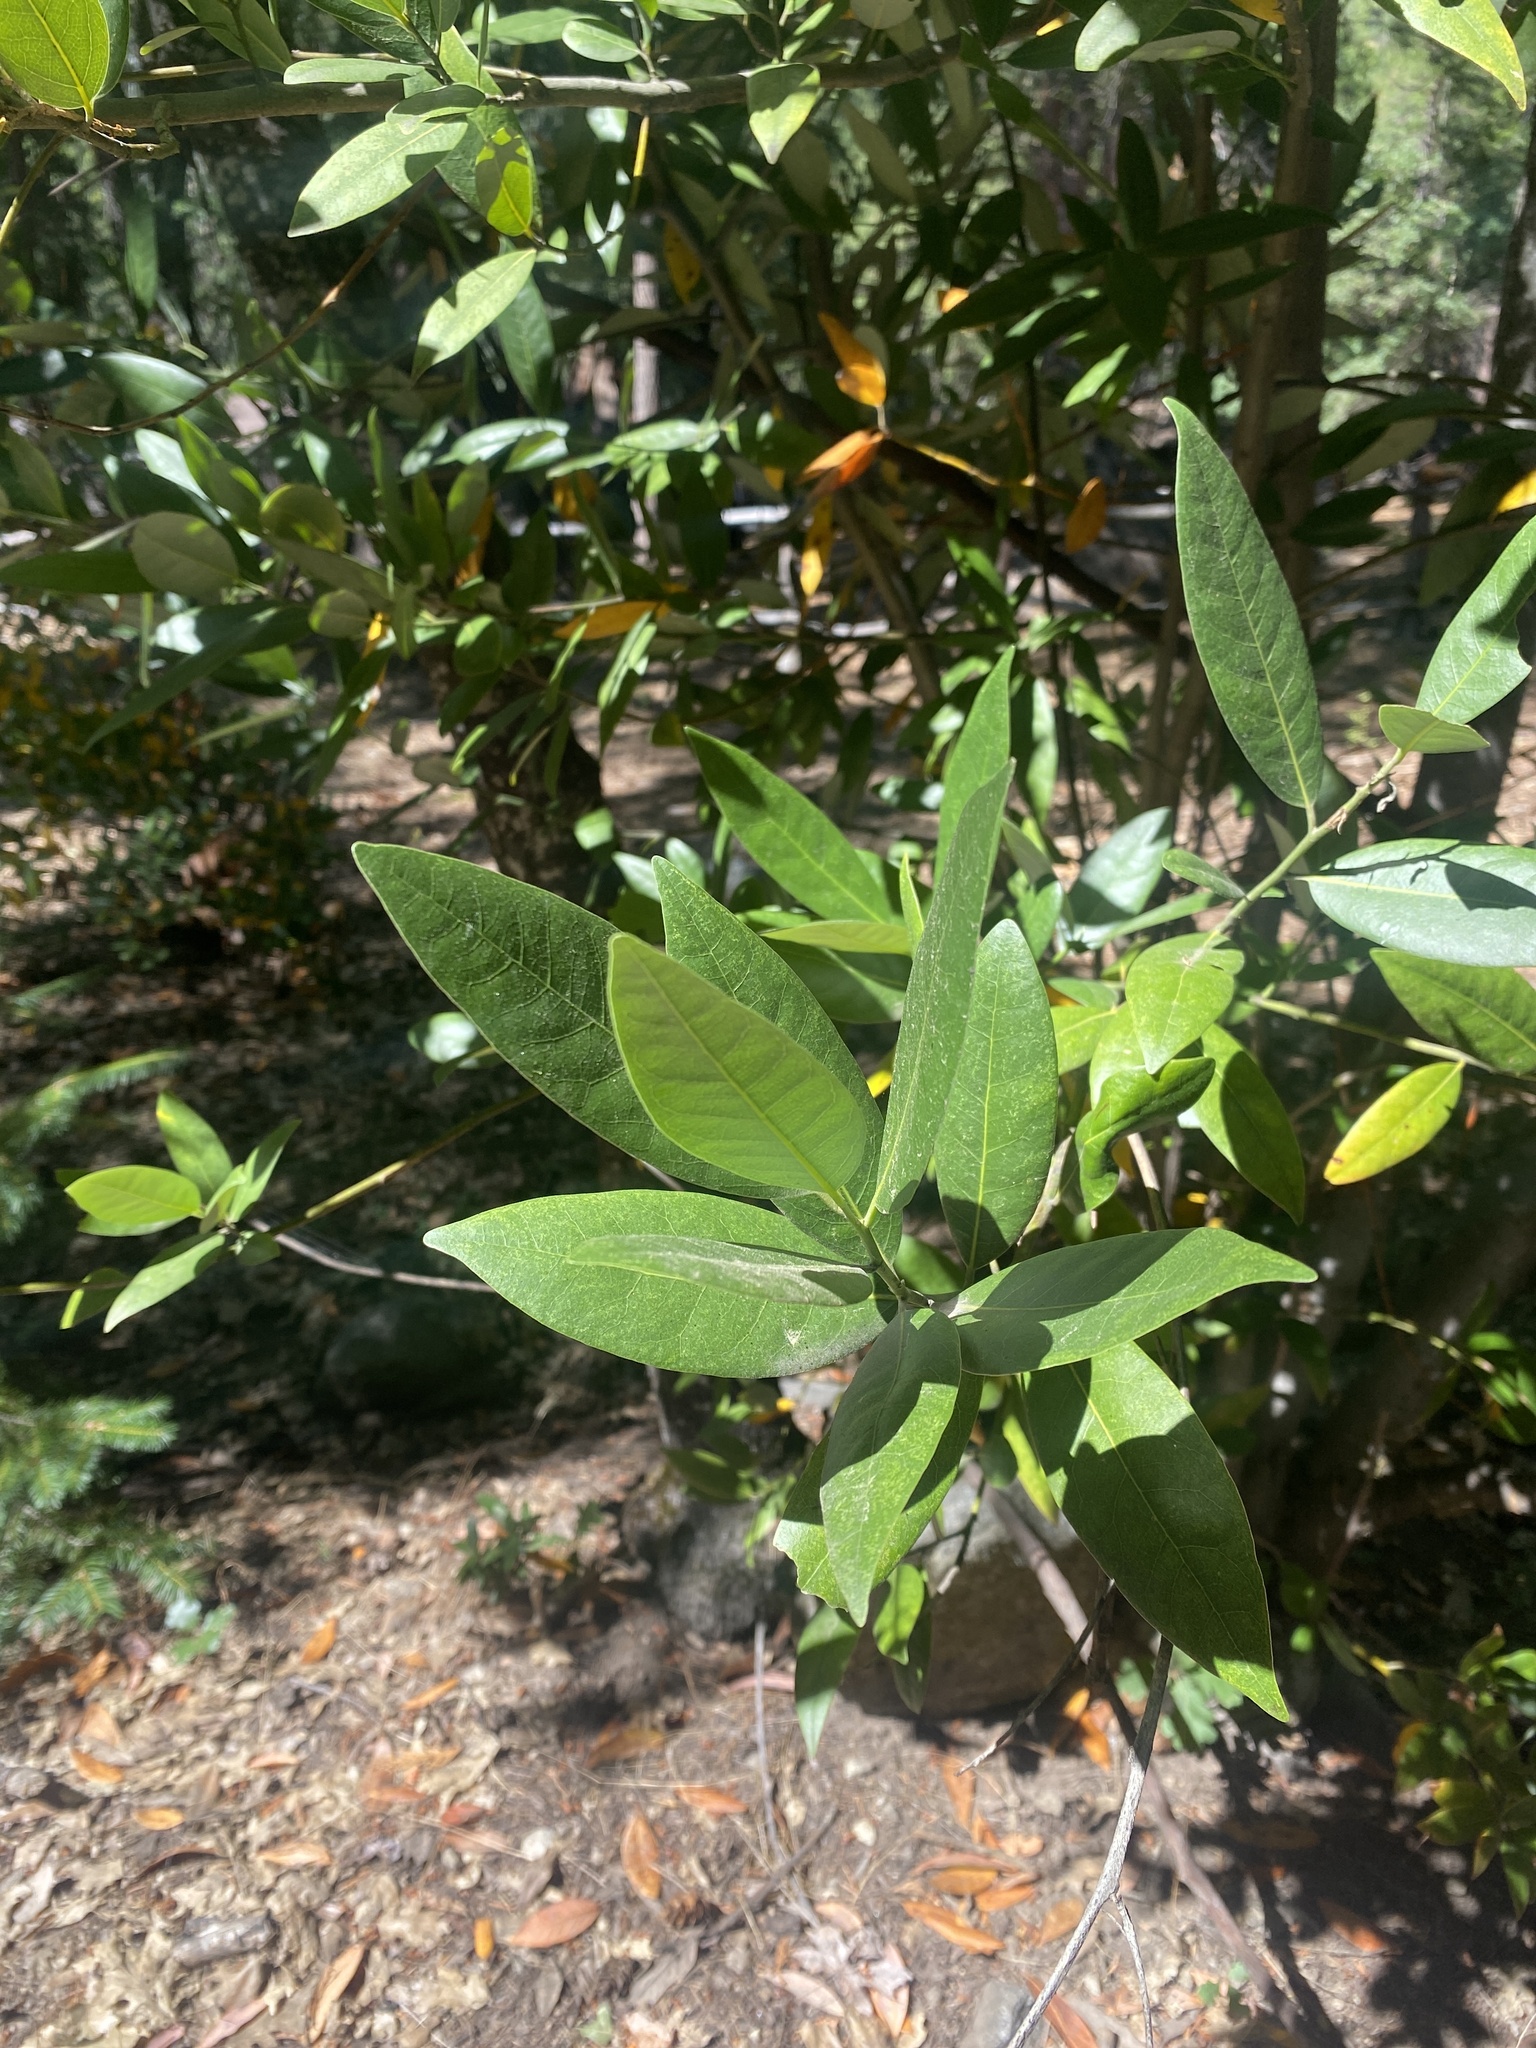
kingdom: Plantae
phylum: Tracheophyta
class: Magnoliopsida
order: Laurales
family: Lauraceae
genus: Umbellularia
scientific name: Umbellularia californica
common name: California bay
